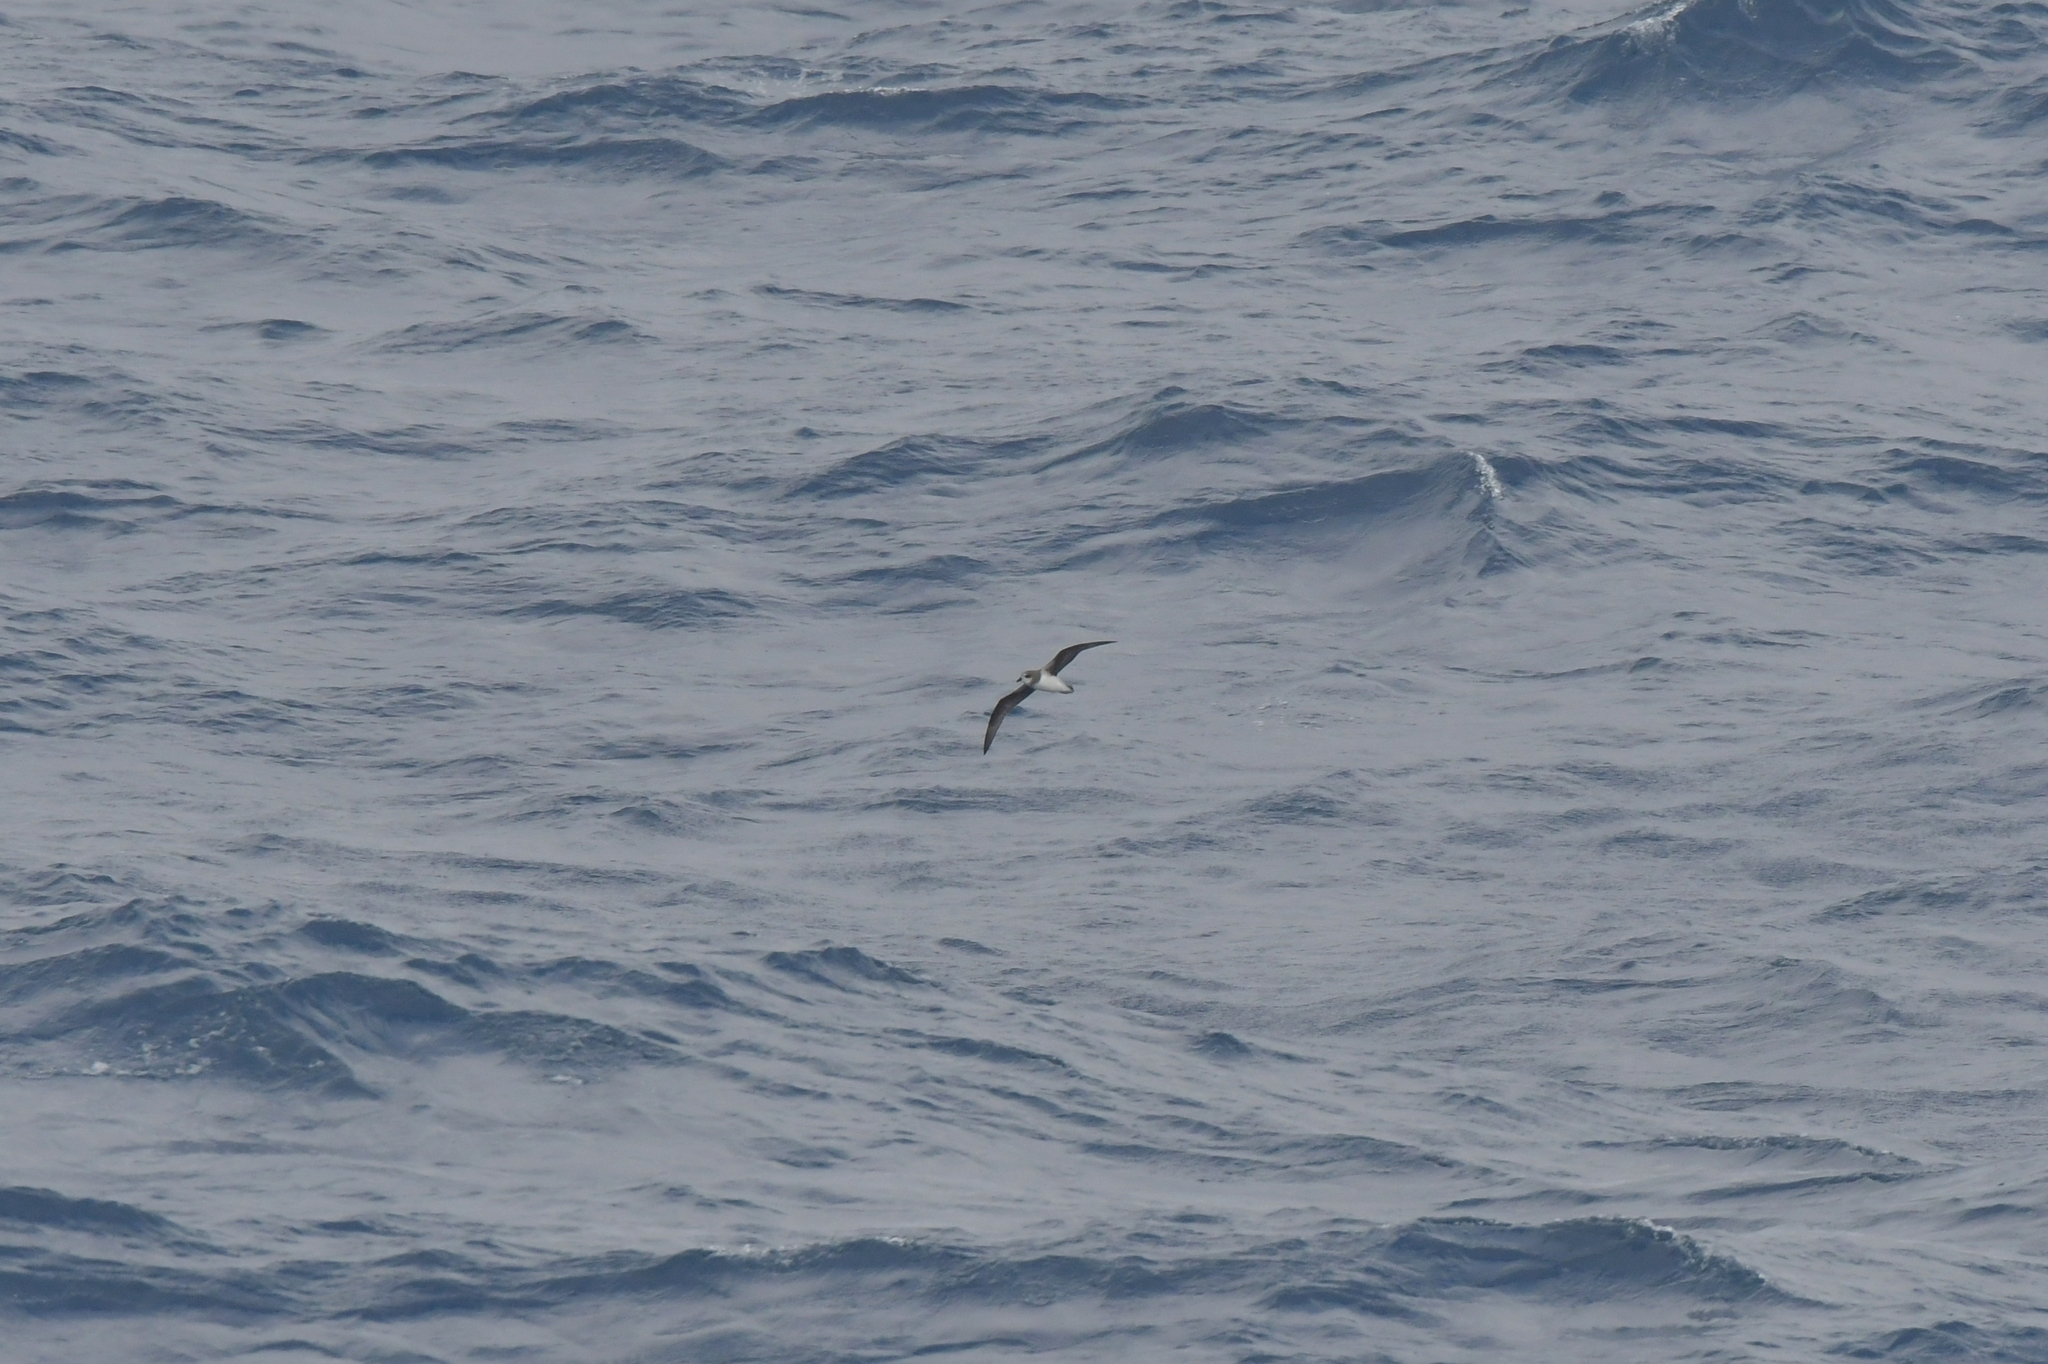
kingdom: Animalia
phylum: Chordata
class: Aves
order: Procellariiformes
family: Procellariidae
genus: Pterodroma
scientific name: Pterodroma mollis
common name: Soft-plumaged petrel
